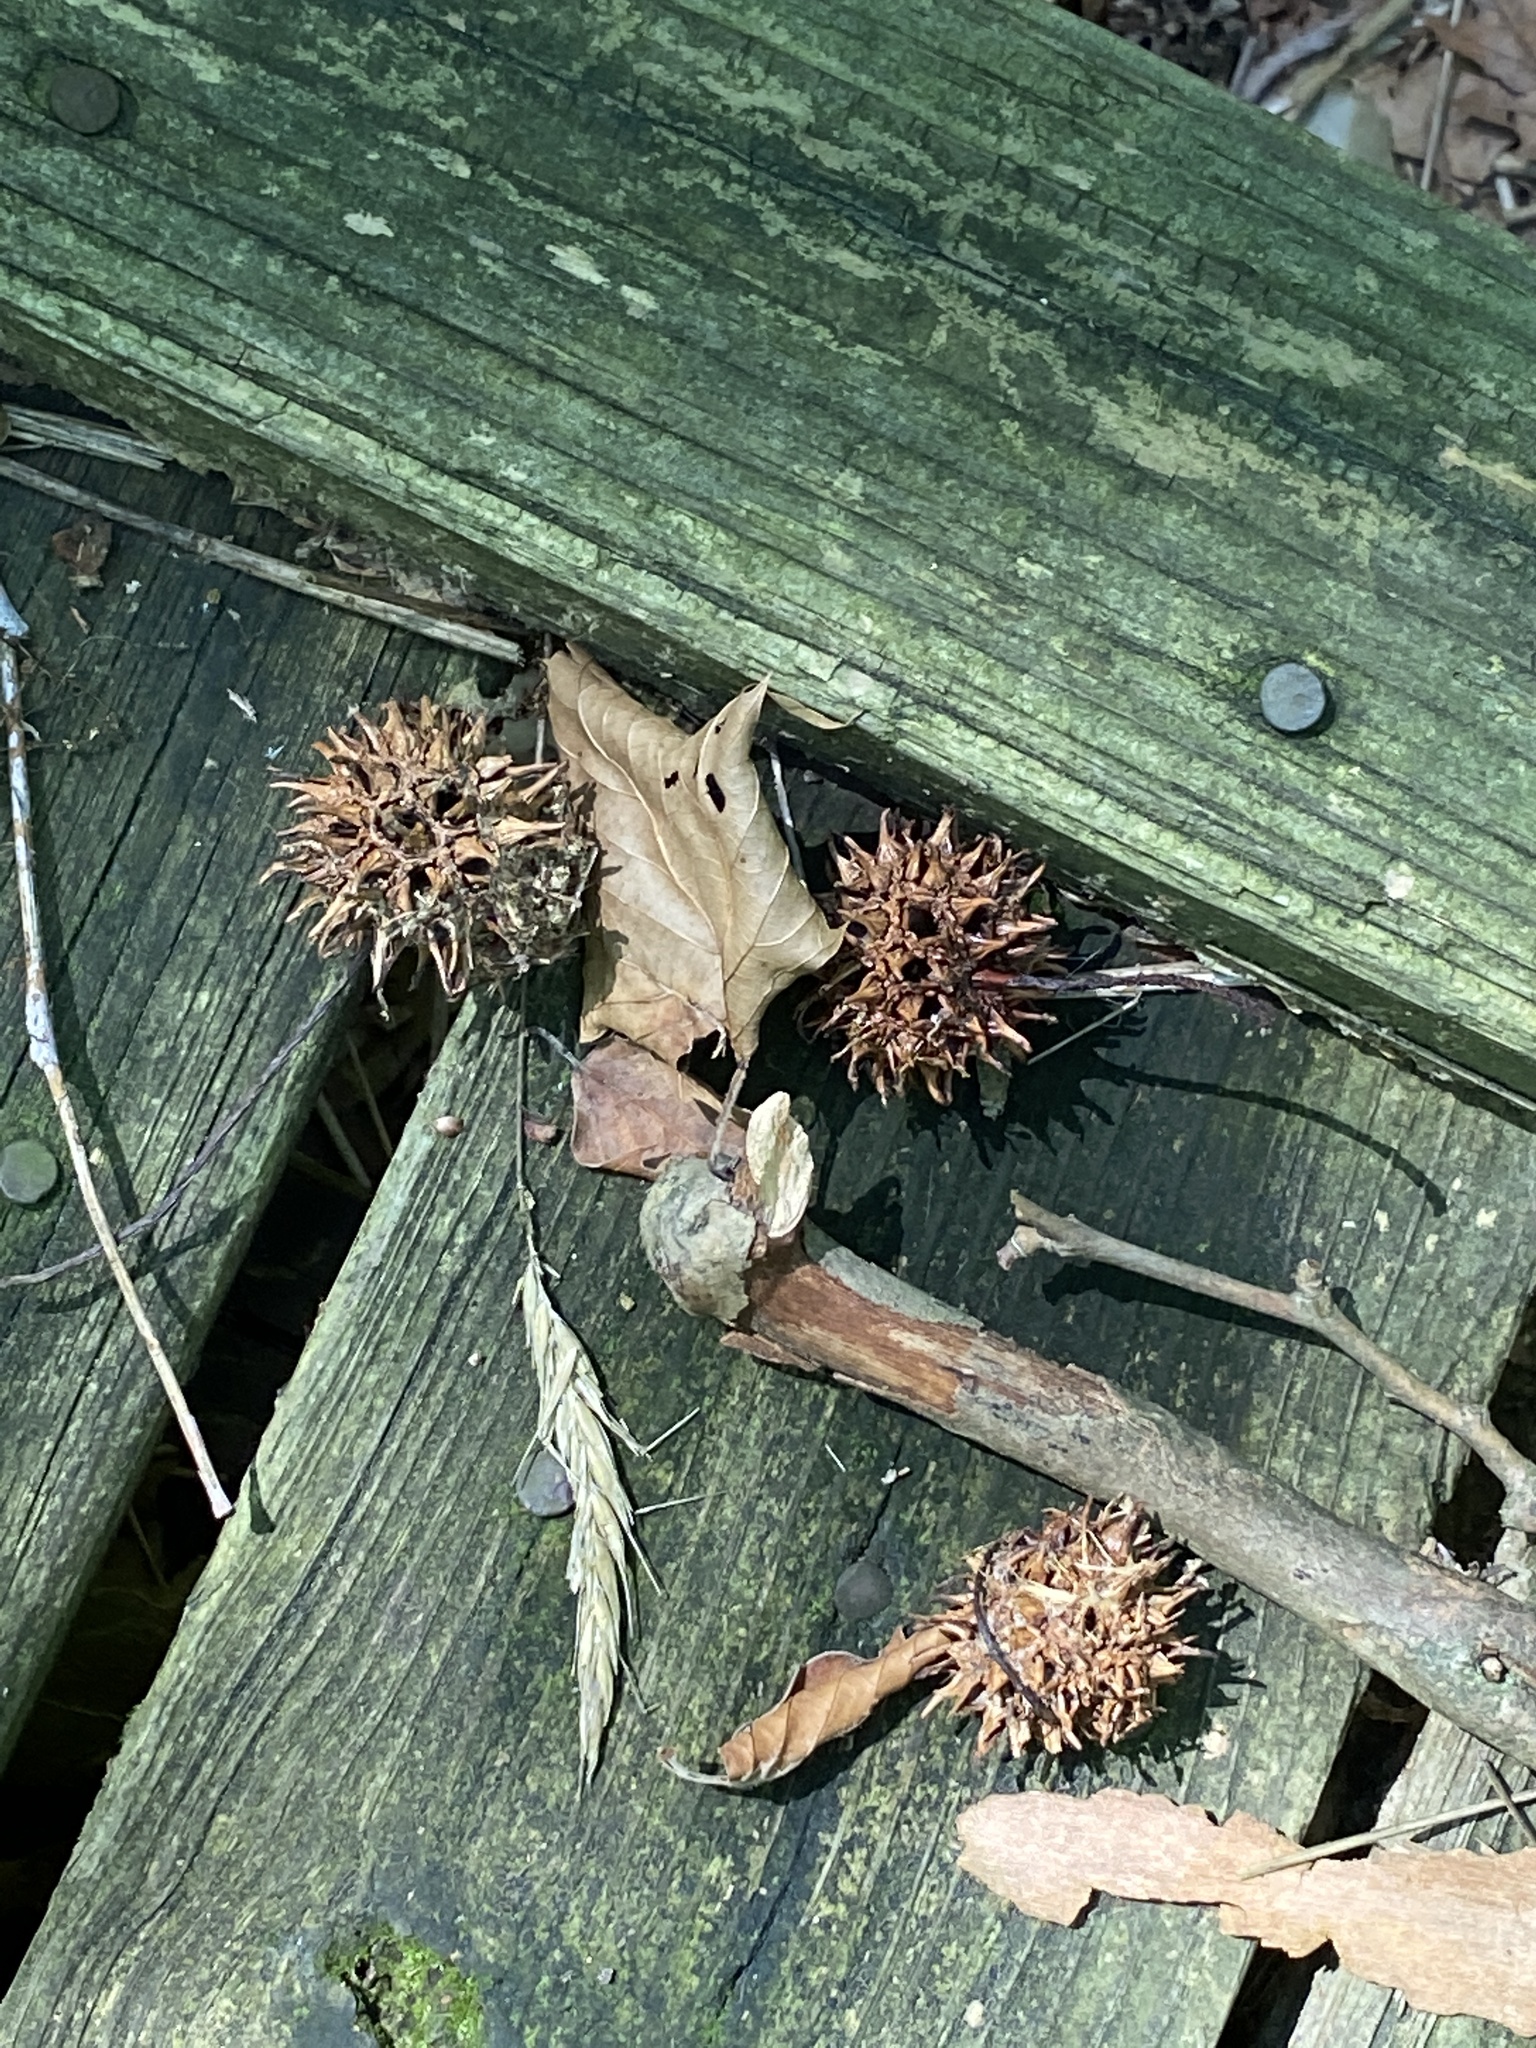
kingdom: Plantae
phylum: Tracheophyta
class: Magnoliopsida
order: Saxifragales
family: Altingiaceae
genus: Liquidambar
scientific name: Liquidambar styraciflua
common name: Sweet gum
